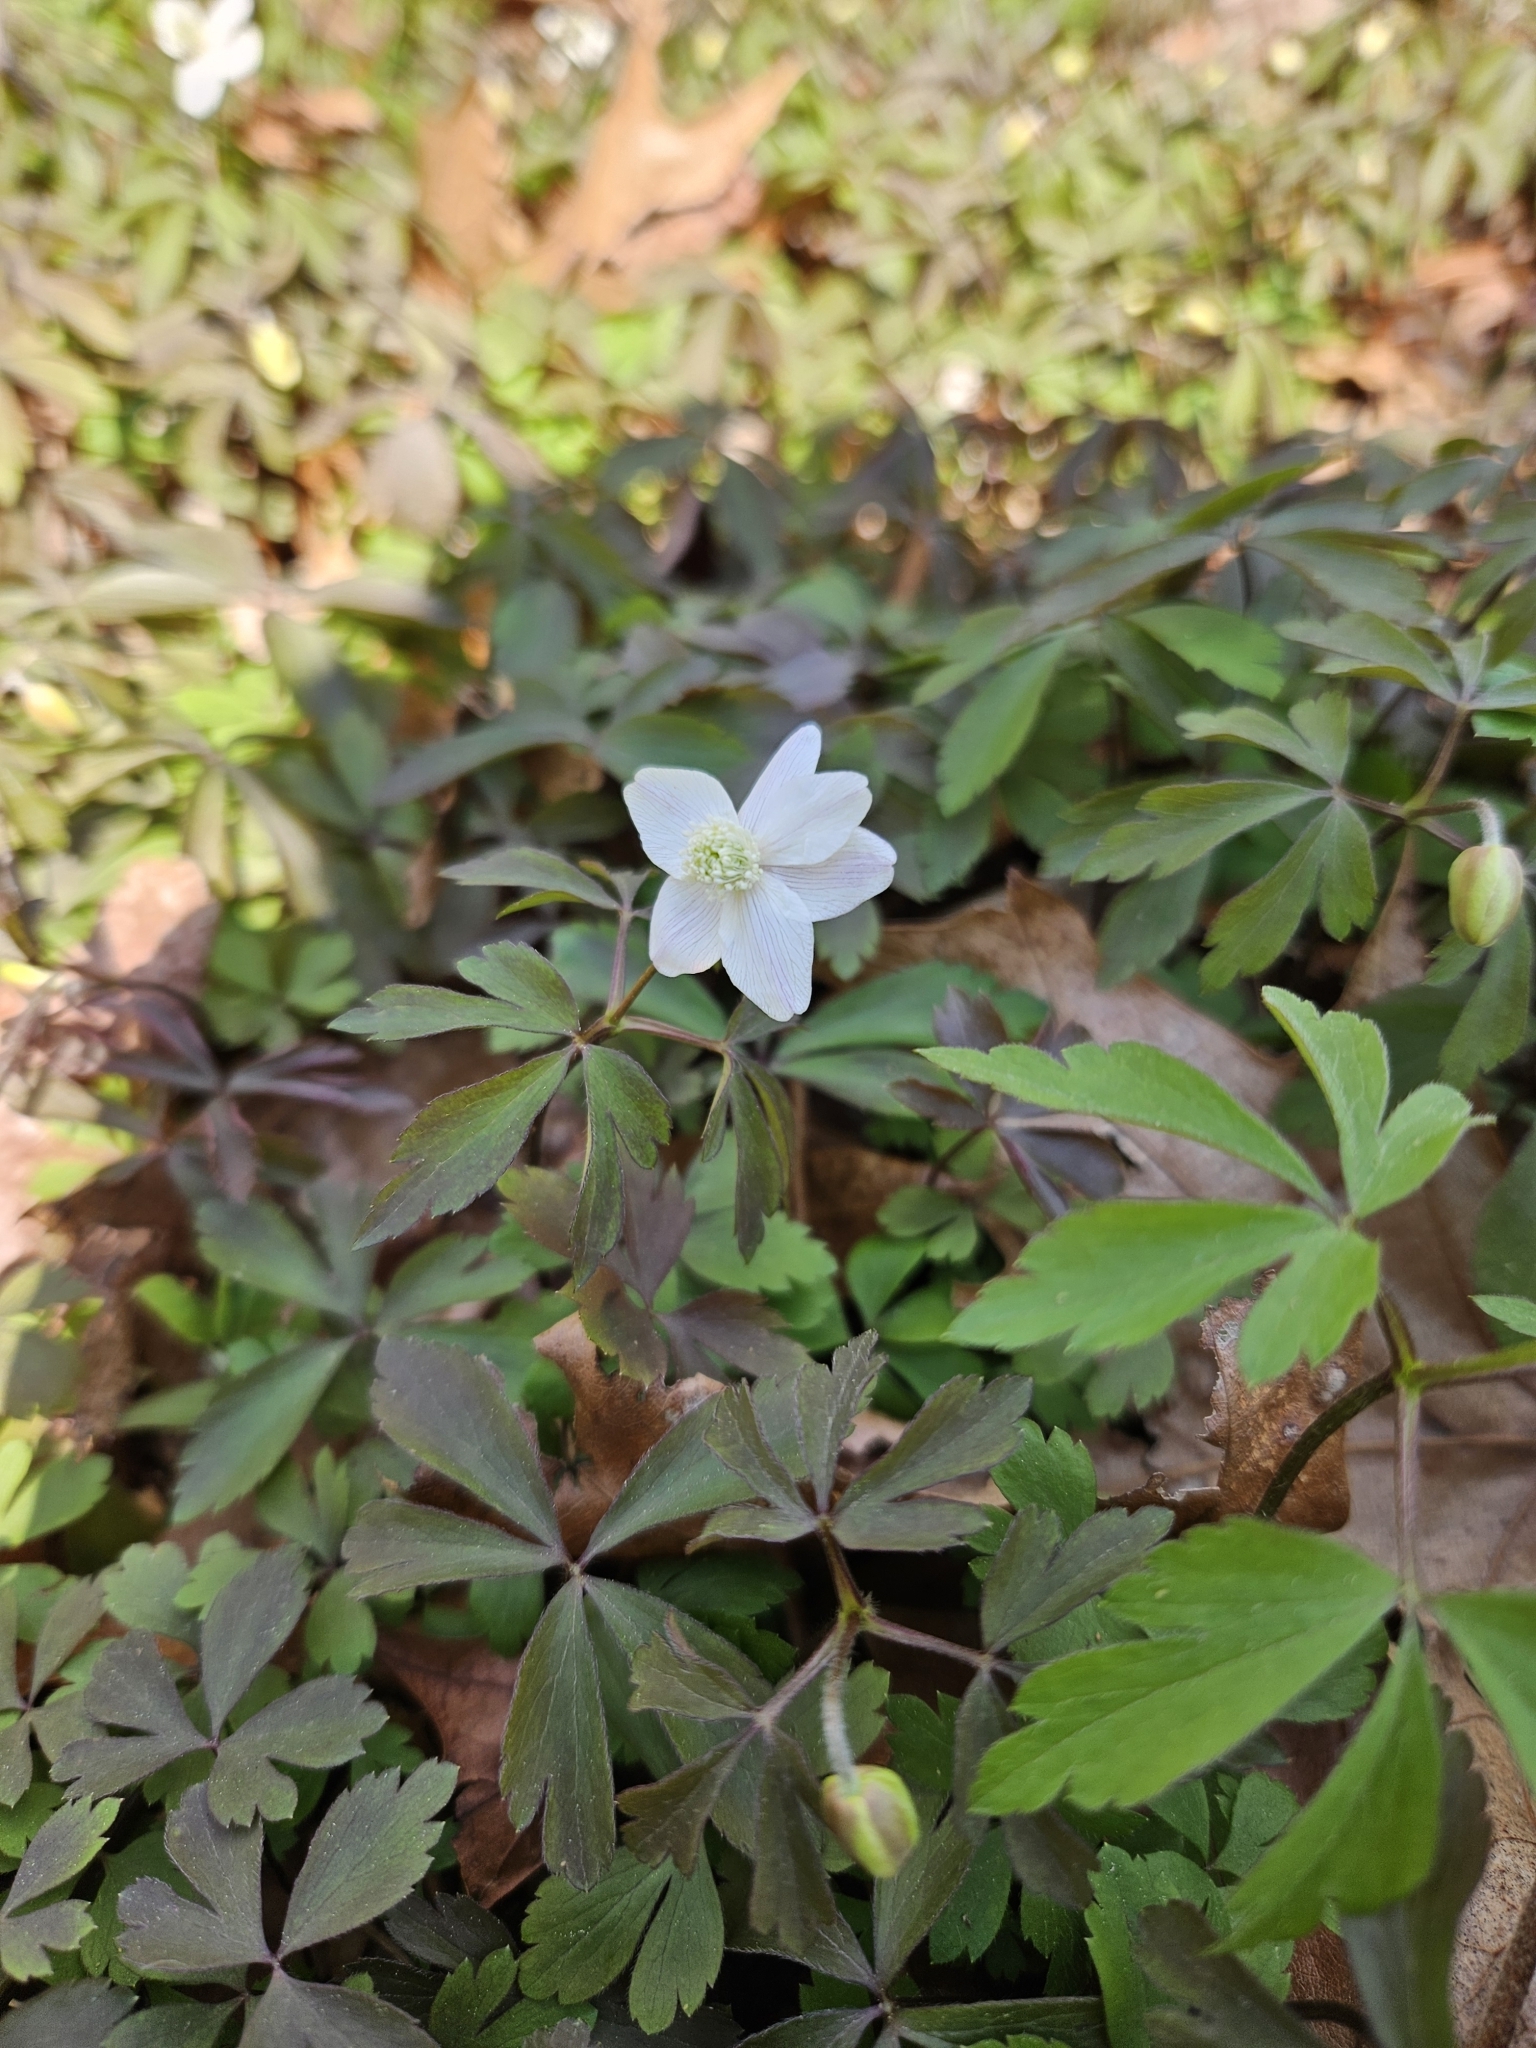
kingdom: Plantae
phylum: Tracheophyta
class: Magnoliopsida
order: Ranunculales
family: Ranunculaceae
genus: Anemone
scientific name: Anemone quinquefolia
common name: Wood anemone
